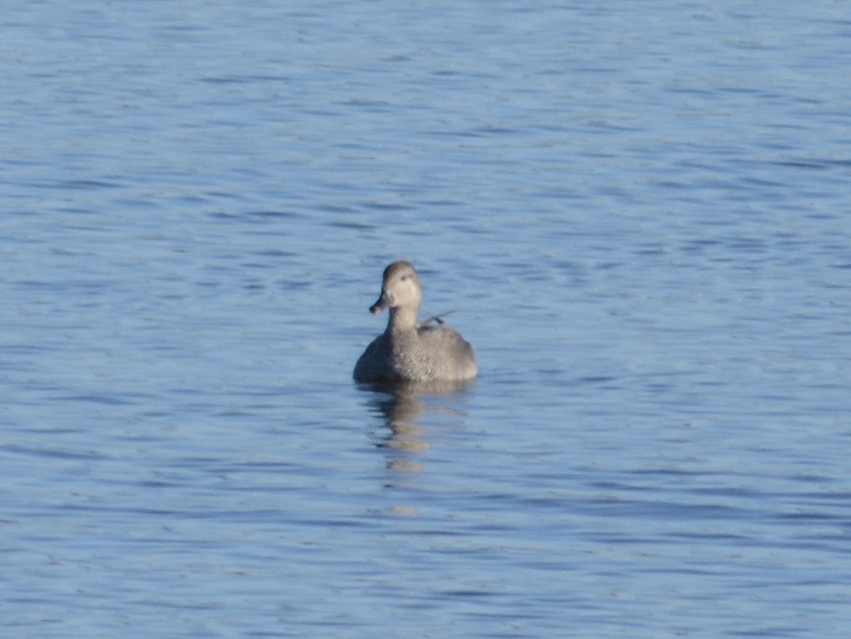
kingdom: Animalia
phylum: Chordata
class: Aves
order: Anseriformes
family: Anatidae
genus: Mareca
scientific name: Mareca strepera
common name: Gadwall
